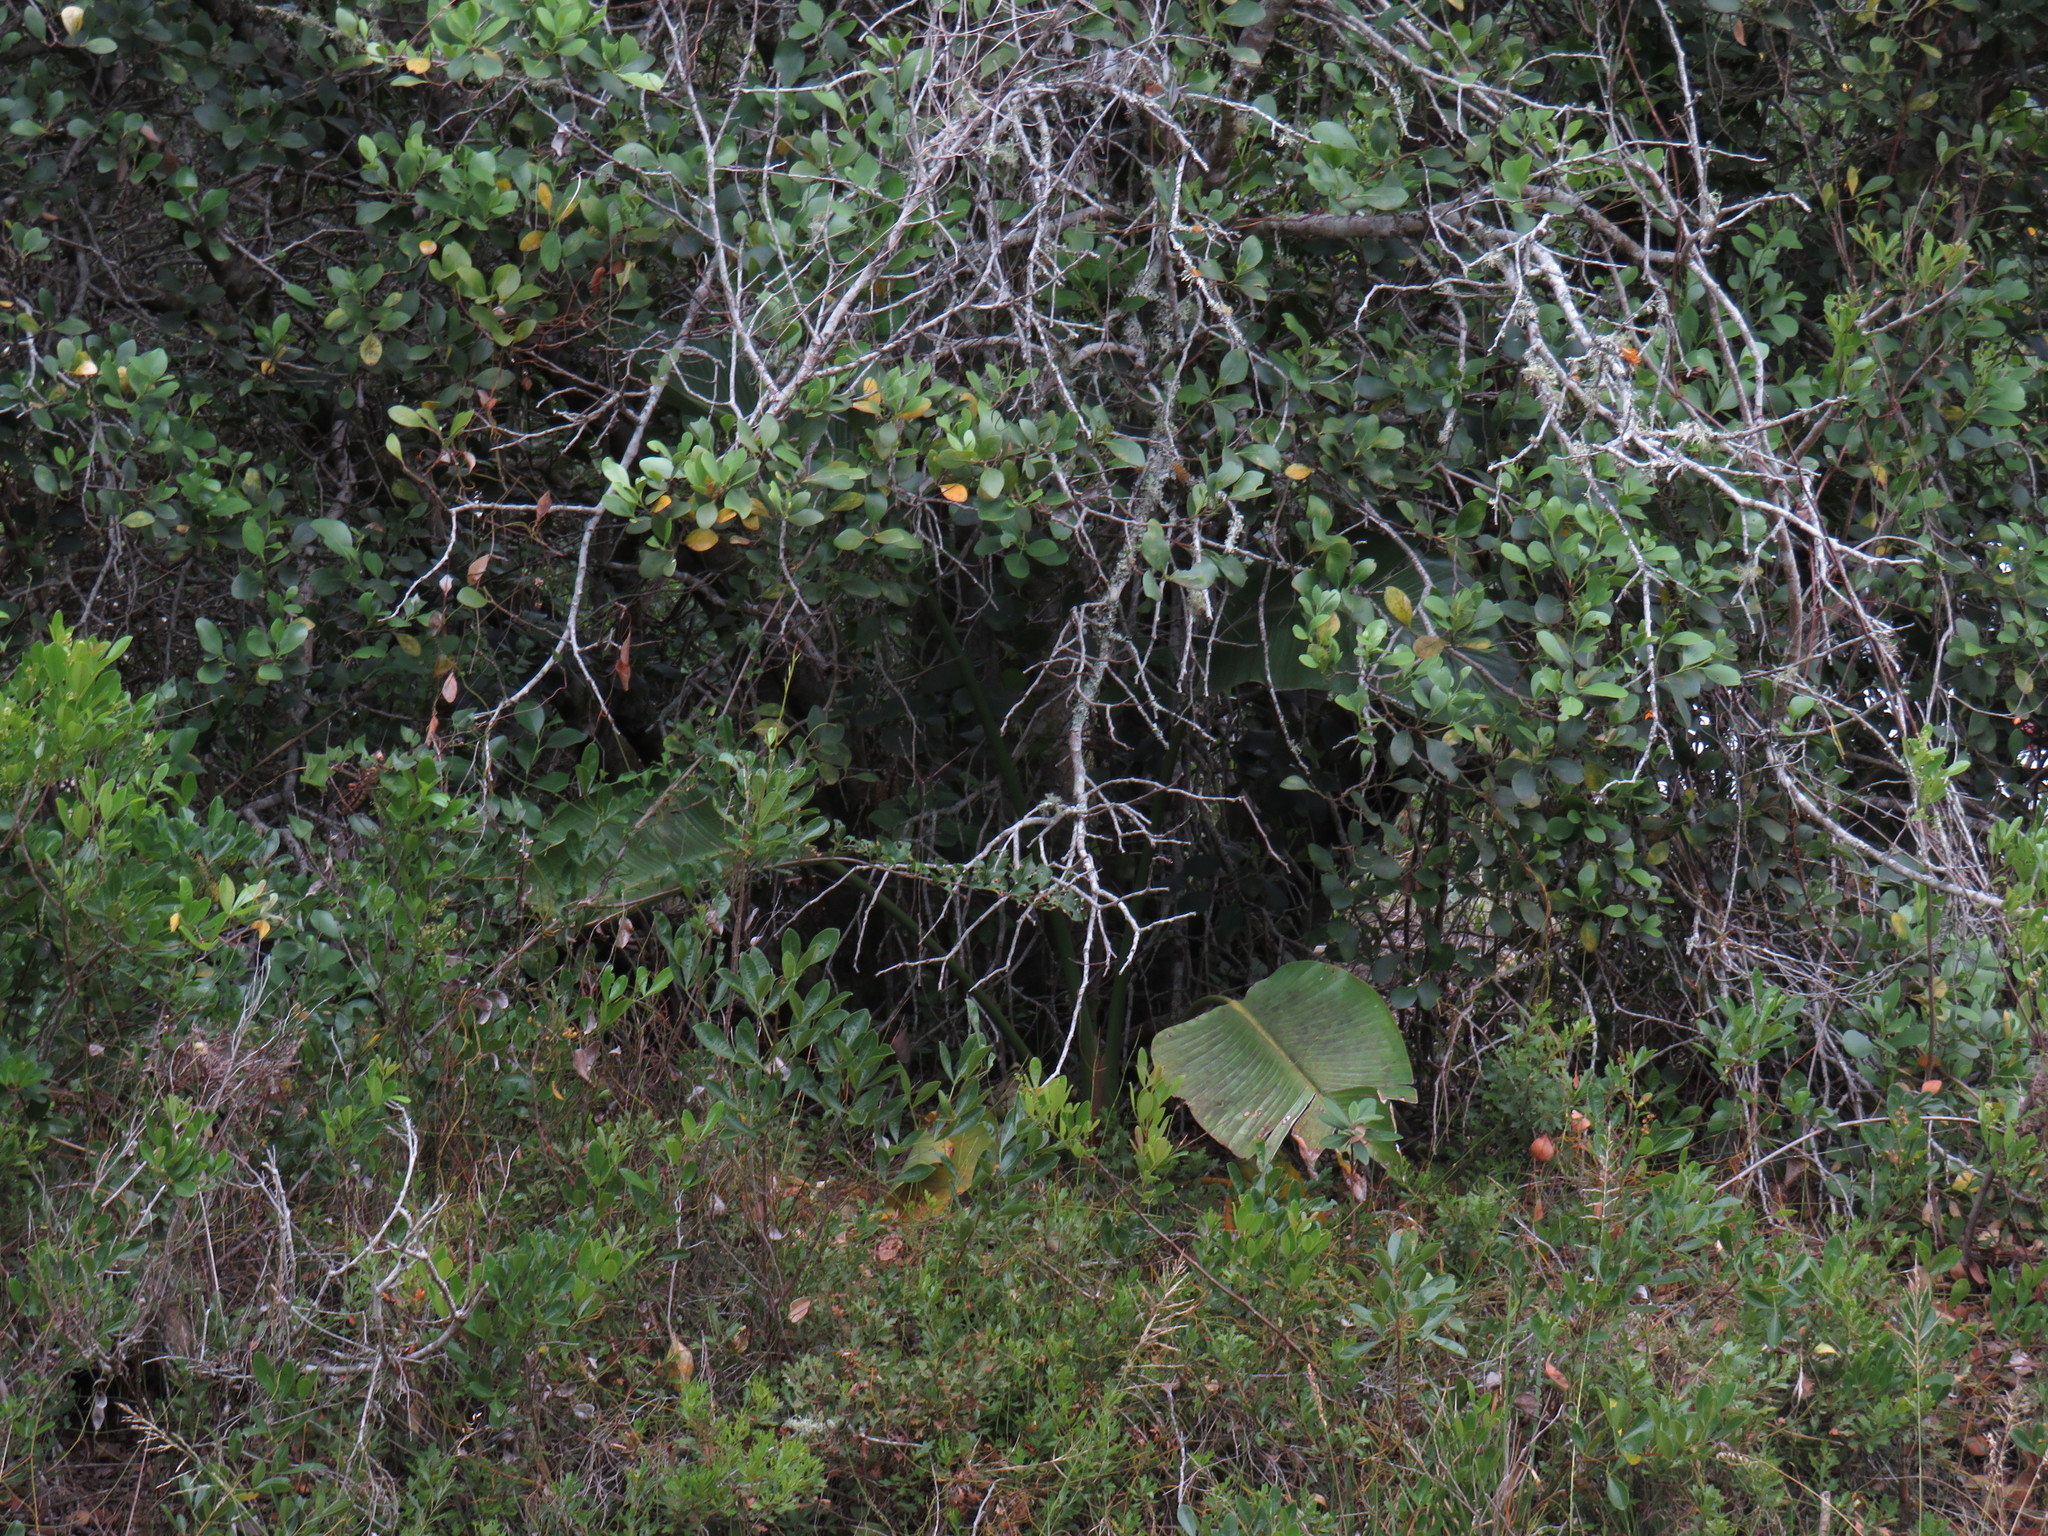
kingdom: Plantae
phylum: Tracheophyta
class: Liliopsida
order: Zingiberales
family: Strelitziaceae
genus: Strelitzia
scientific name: Strelitzia alba
